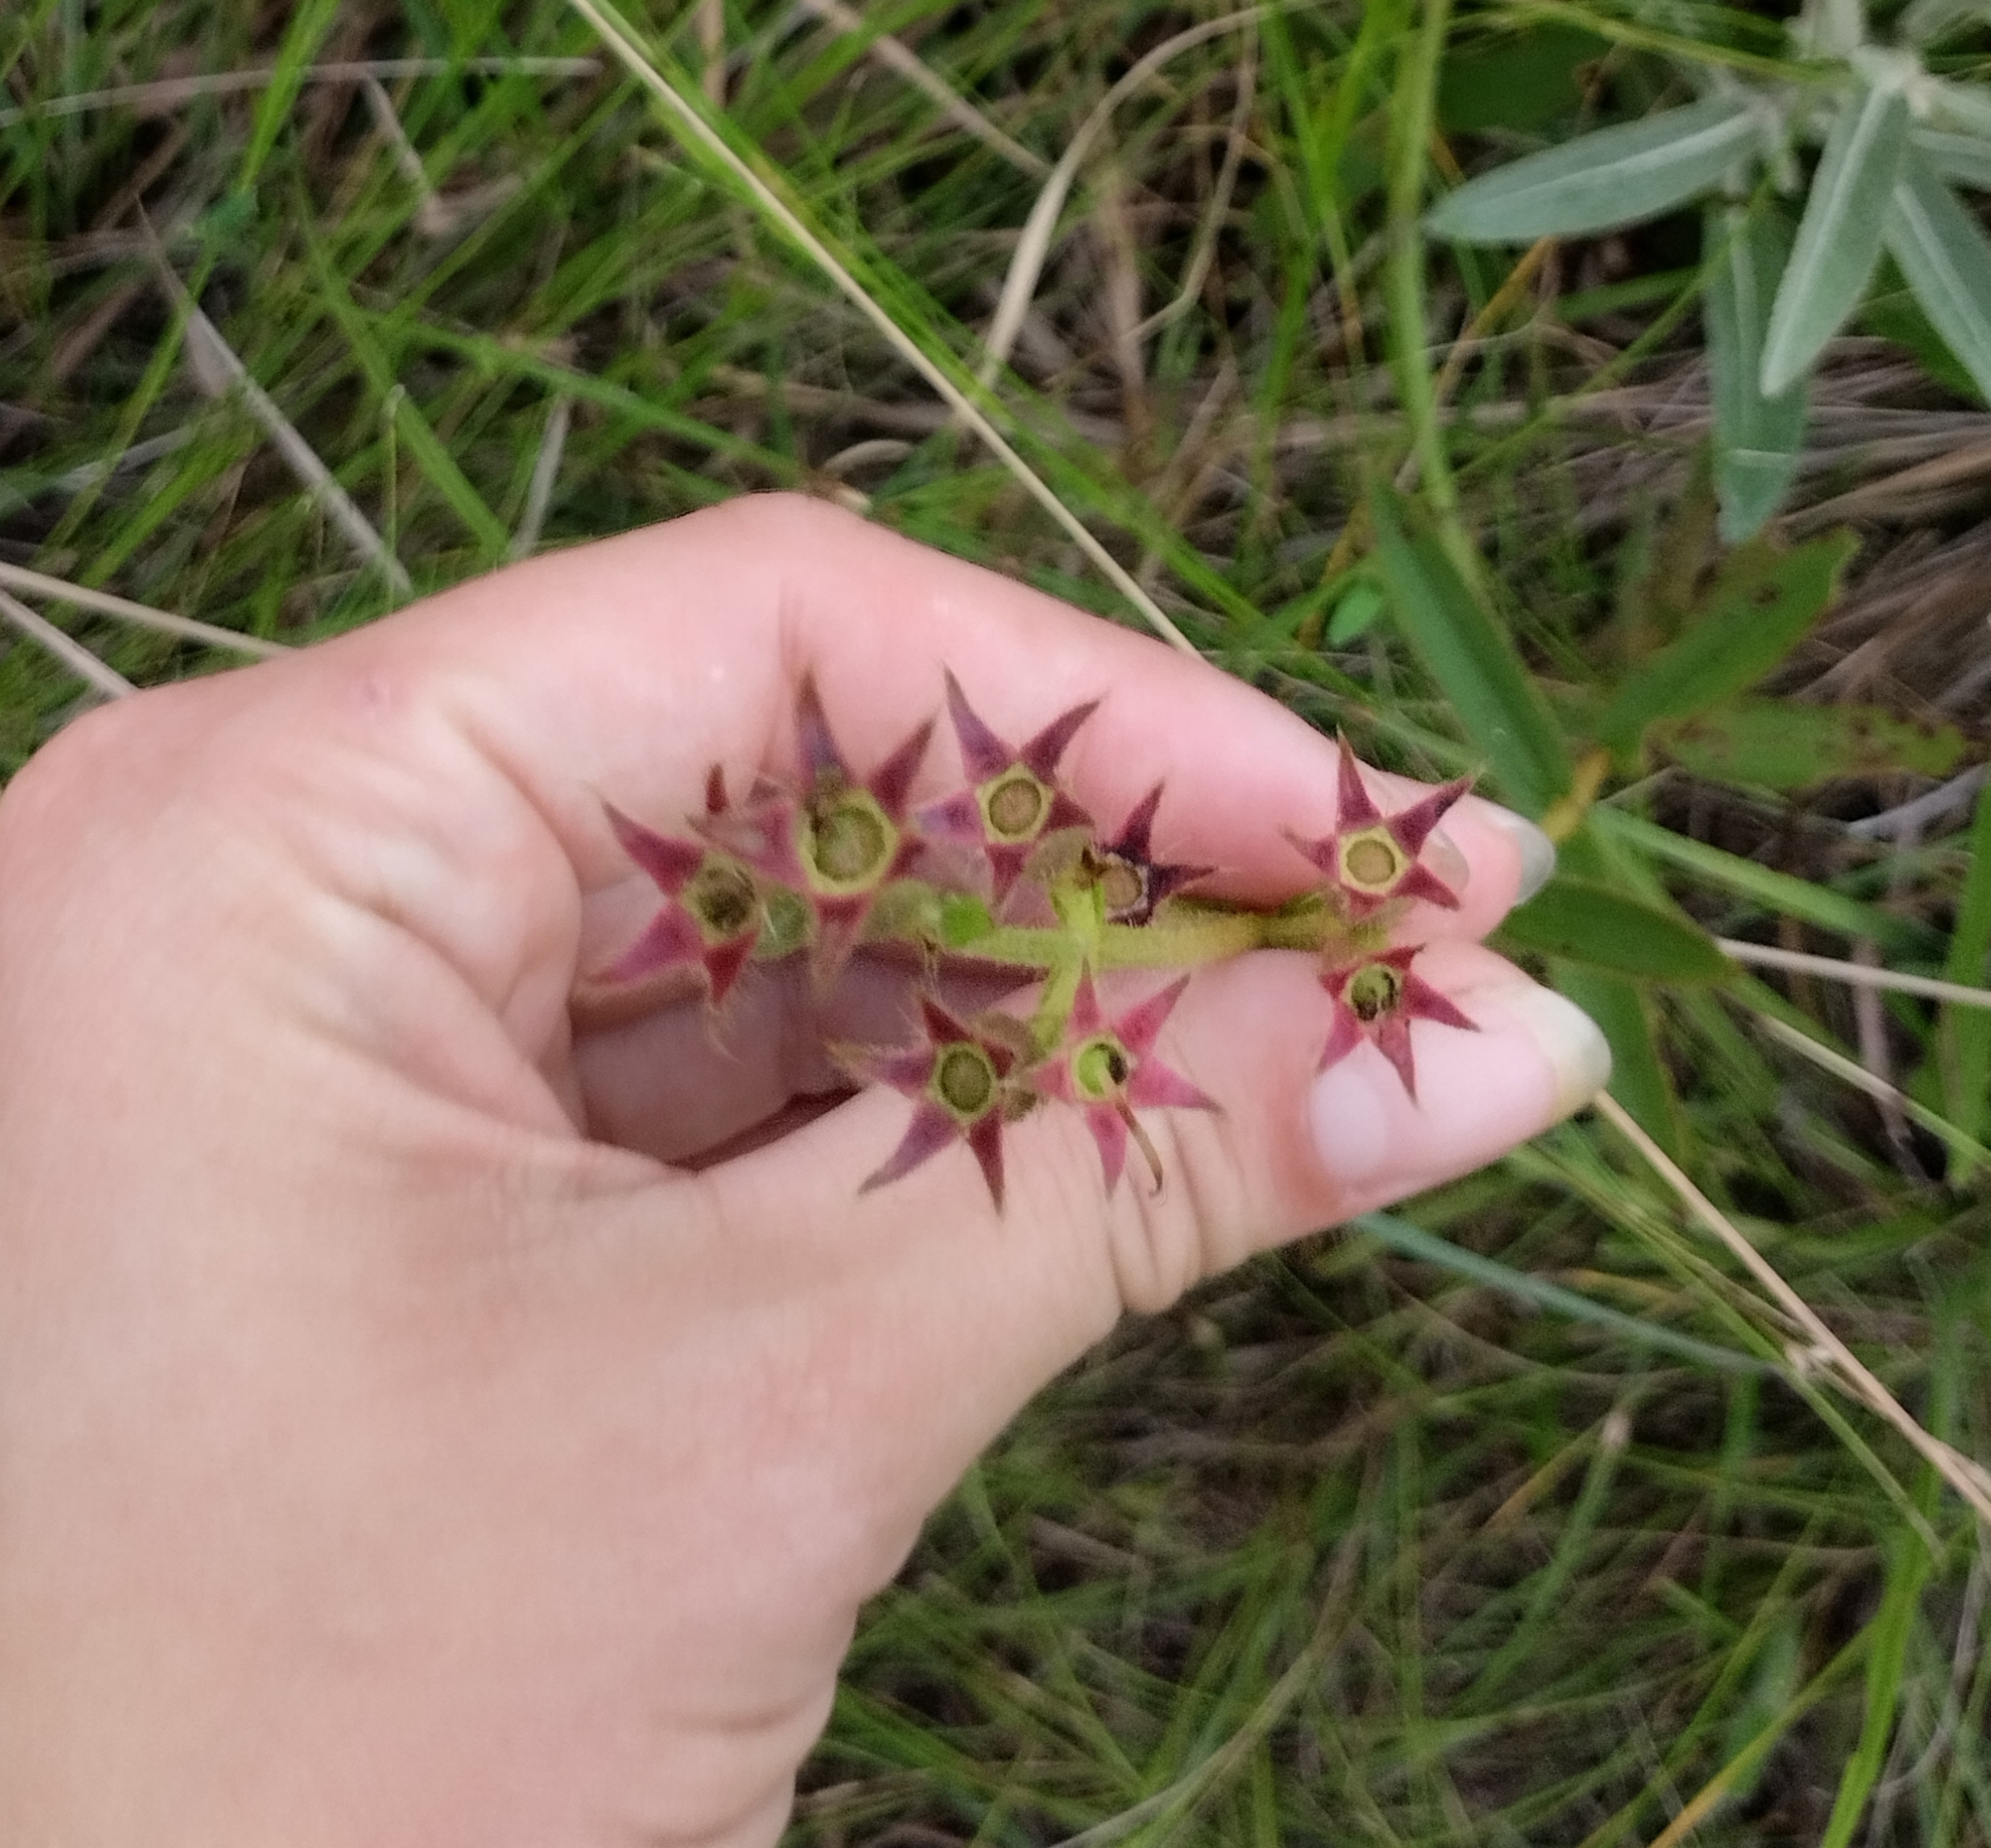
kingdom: Plantae
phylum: Tracheophyta
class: Magnoliopsida
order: Myrtales
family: Melastomataceae
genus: Chaetogastra
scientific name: Chaetogastra gracilis
